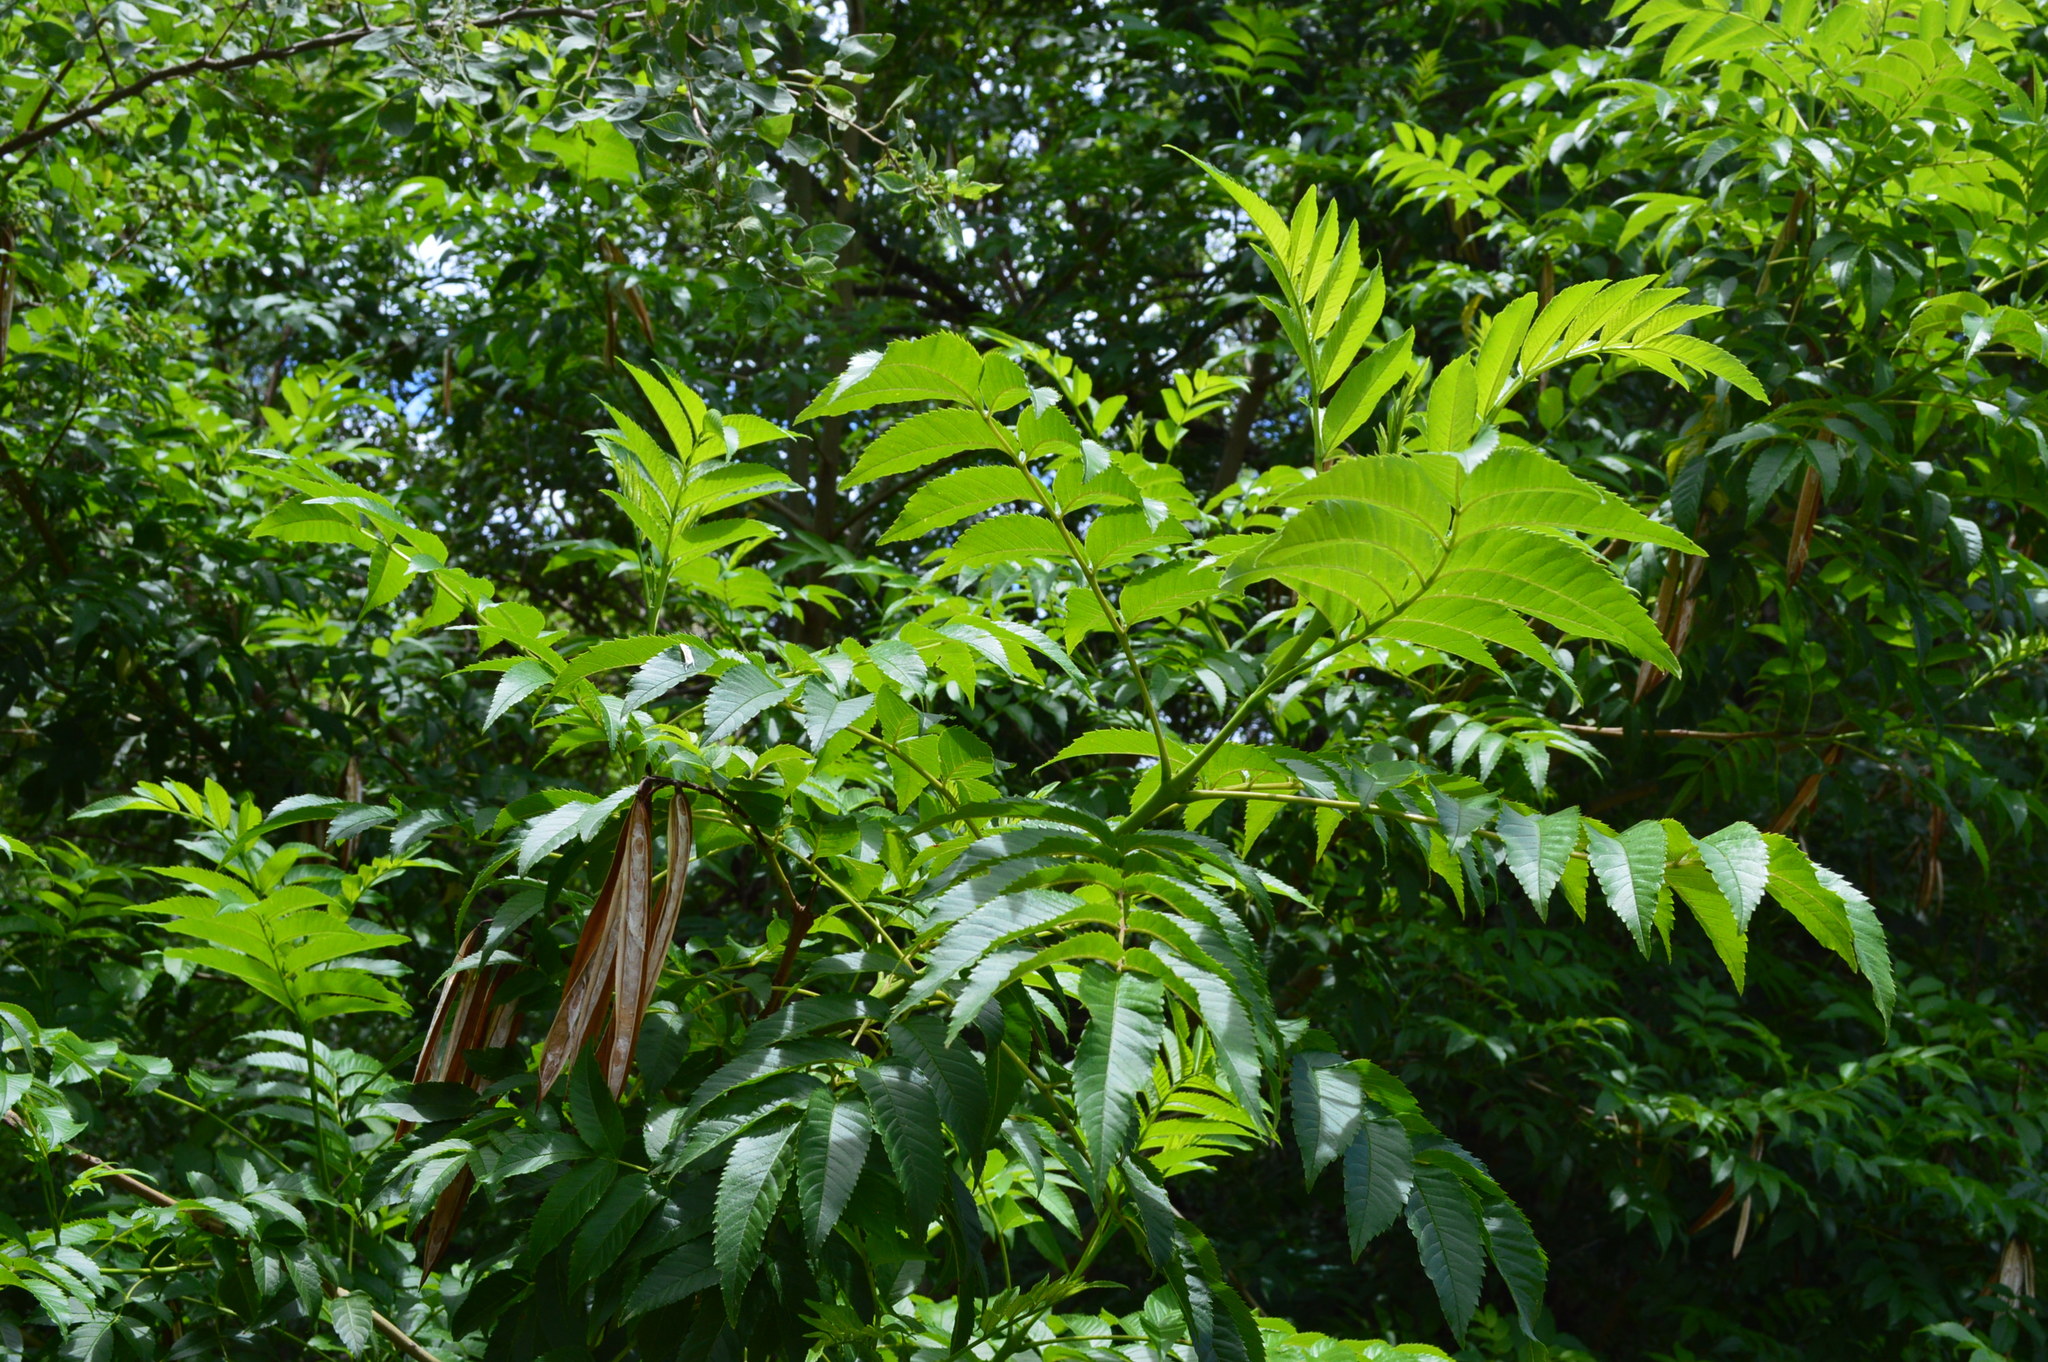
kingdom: Plantae
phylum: Tracheophyta
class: Magnoliopsida
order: Lamiales
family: Bignoniaceae
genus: Tecoma
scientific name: Tecoma stans
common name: Yellow trumpetbush
